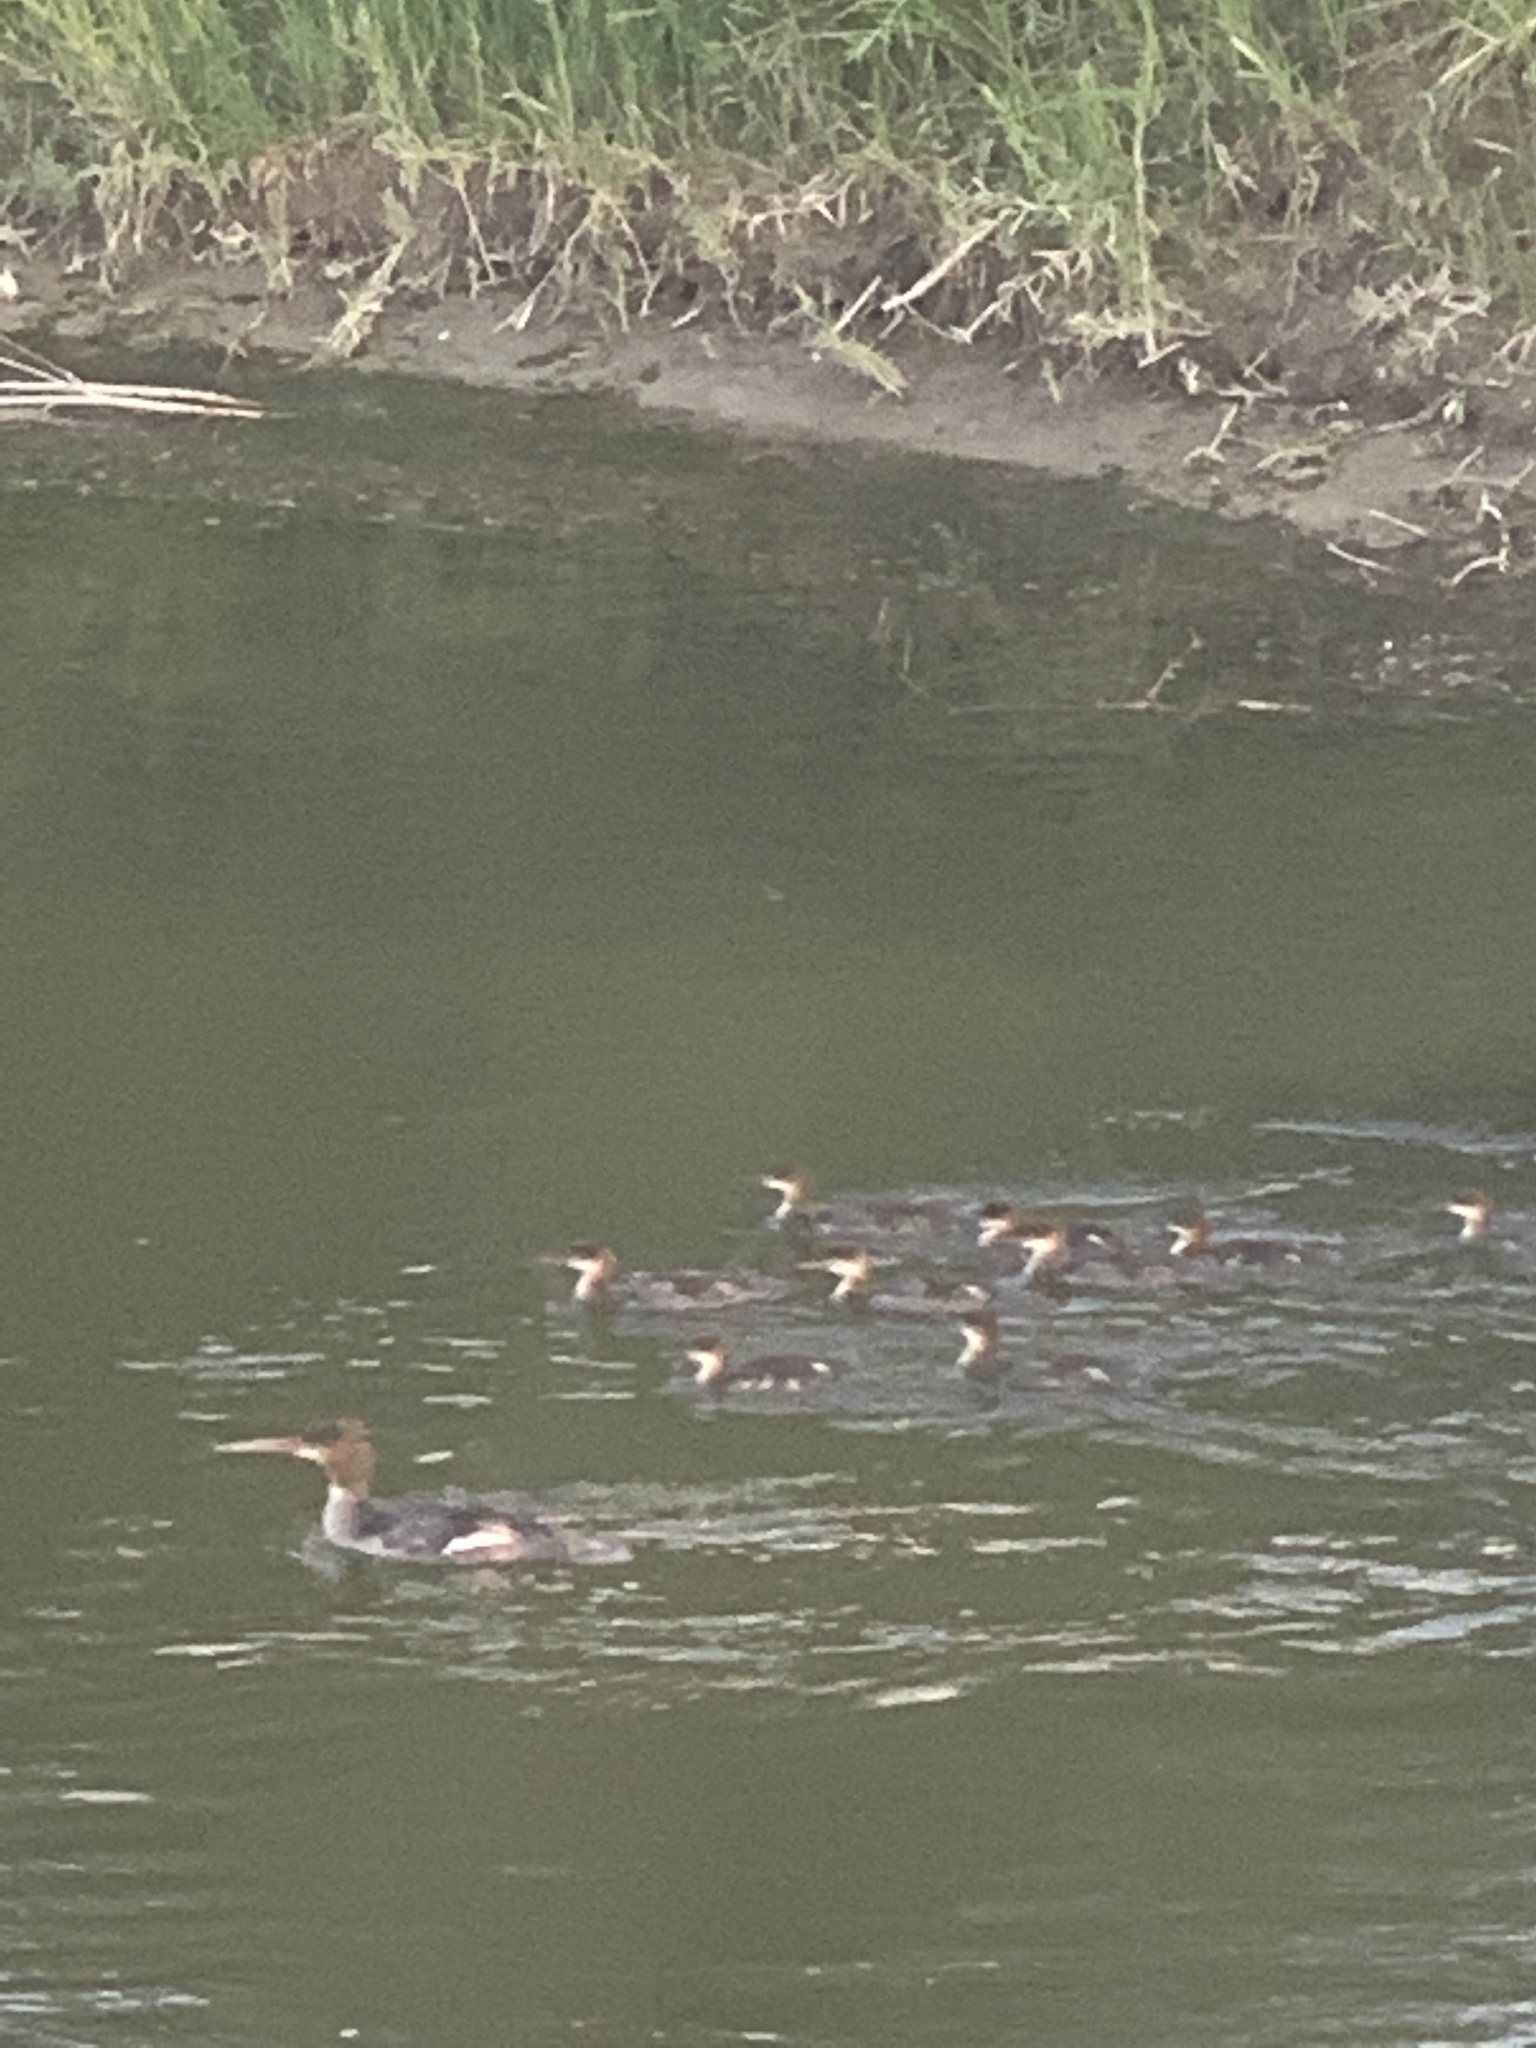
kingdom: Animalia
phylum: Chordata
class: Aves
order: Anseriformes
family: Anatidae
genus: Mergus
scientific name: Mergus merganser
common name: Common merganser
